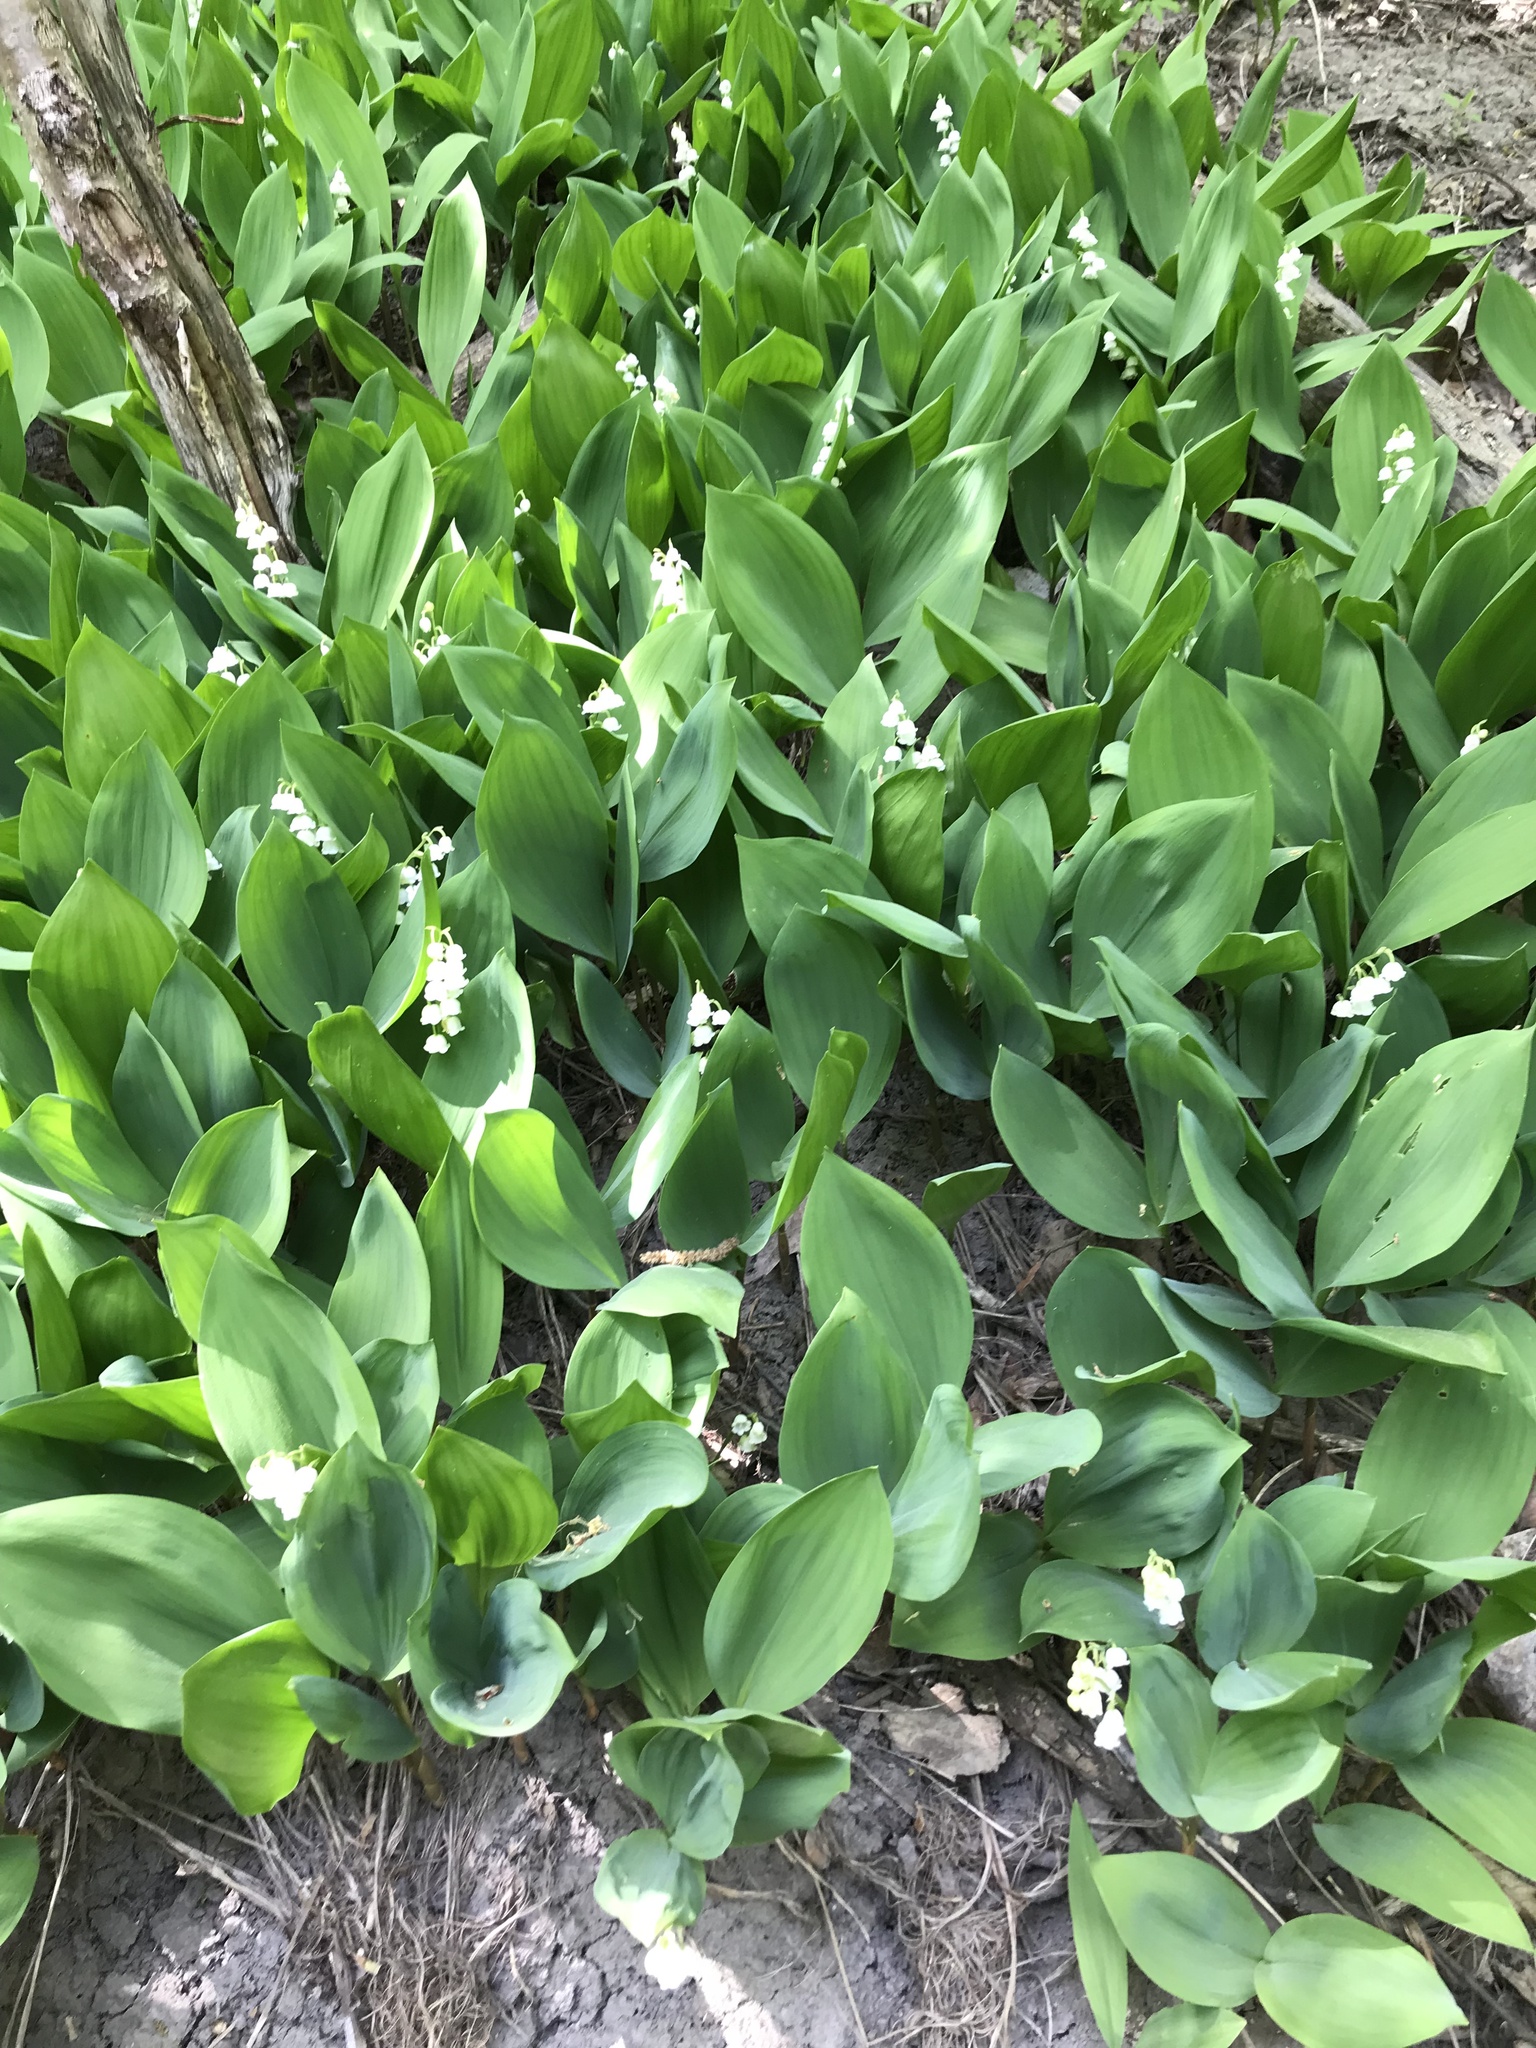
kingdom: Plantae
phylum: Tracheophyta
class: Liliopsida
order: Asparagales
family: Asparagaceae
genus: Convallaria
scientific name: Convallaria majalis
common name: Lily-of-the-valley
